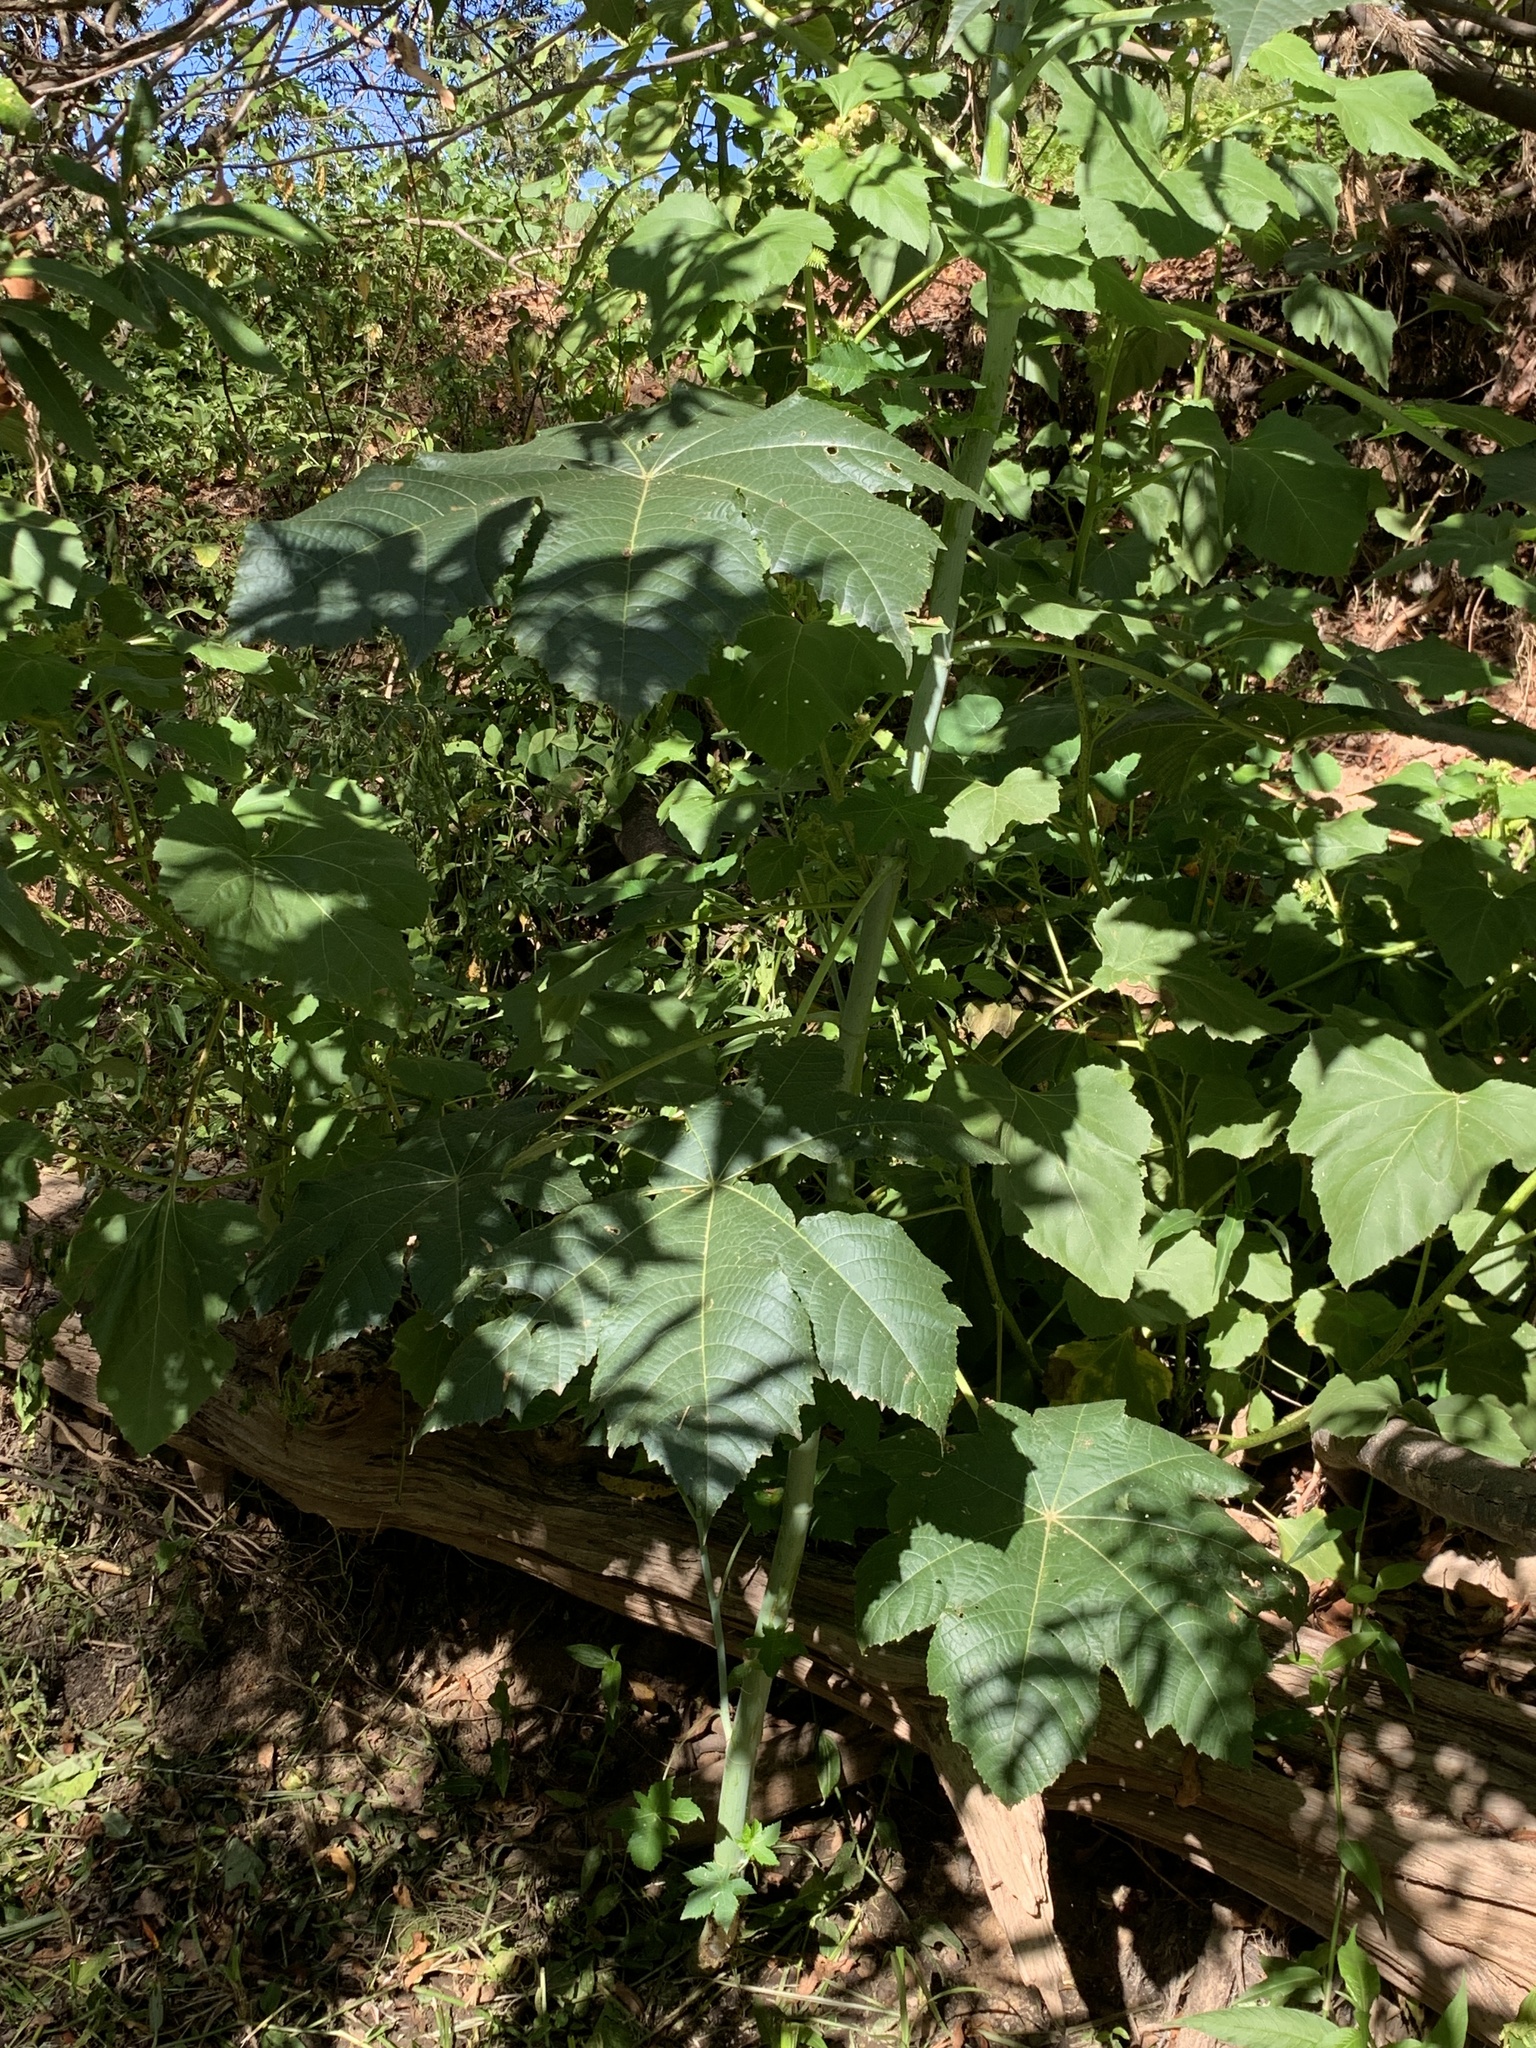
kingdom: Plantae
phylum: Tracheophyta
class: Magnoliopsida
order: Malpighiales
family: Euphorbiaceae
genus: Ricinus
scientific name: Ricinus communis
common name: Castor-oil-plant
